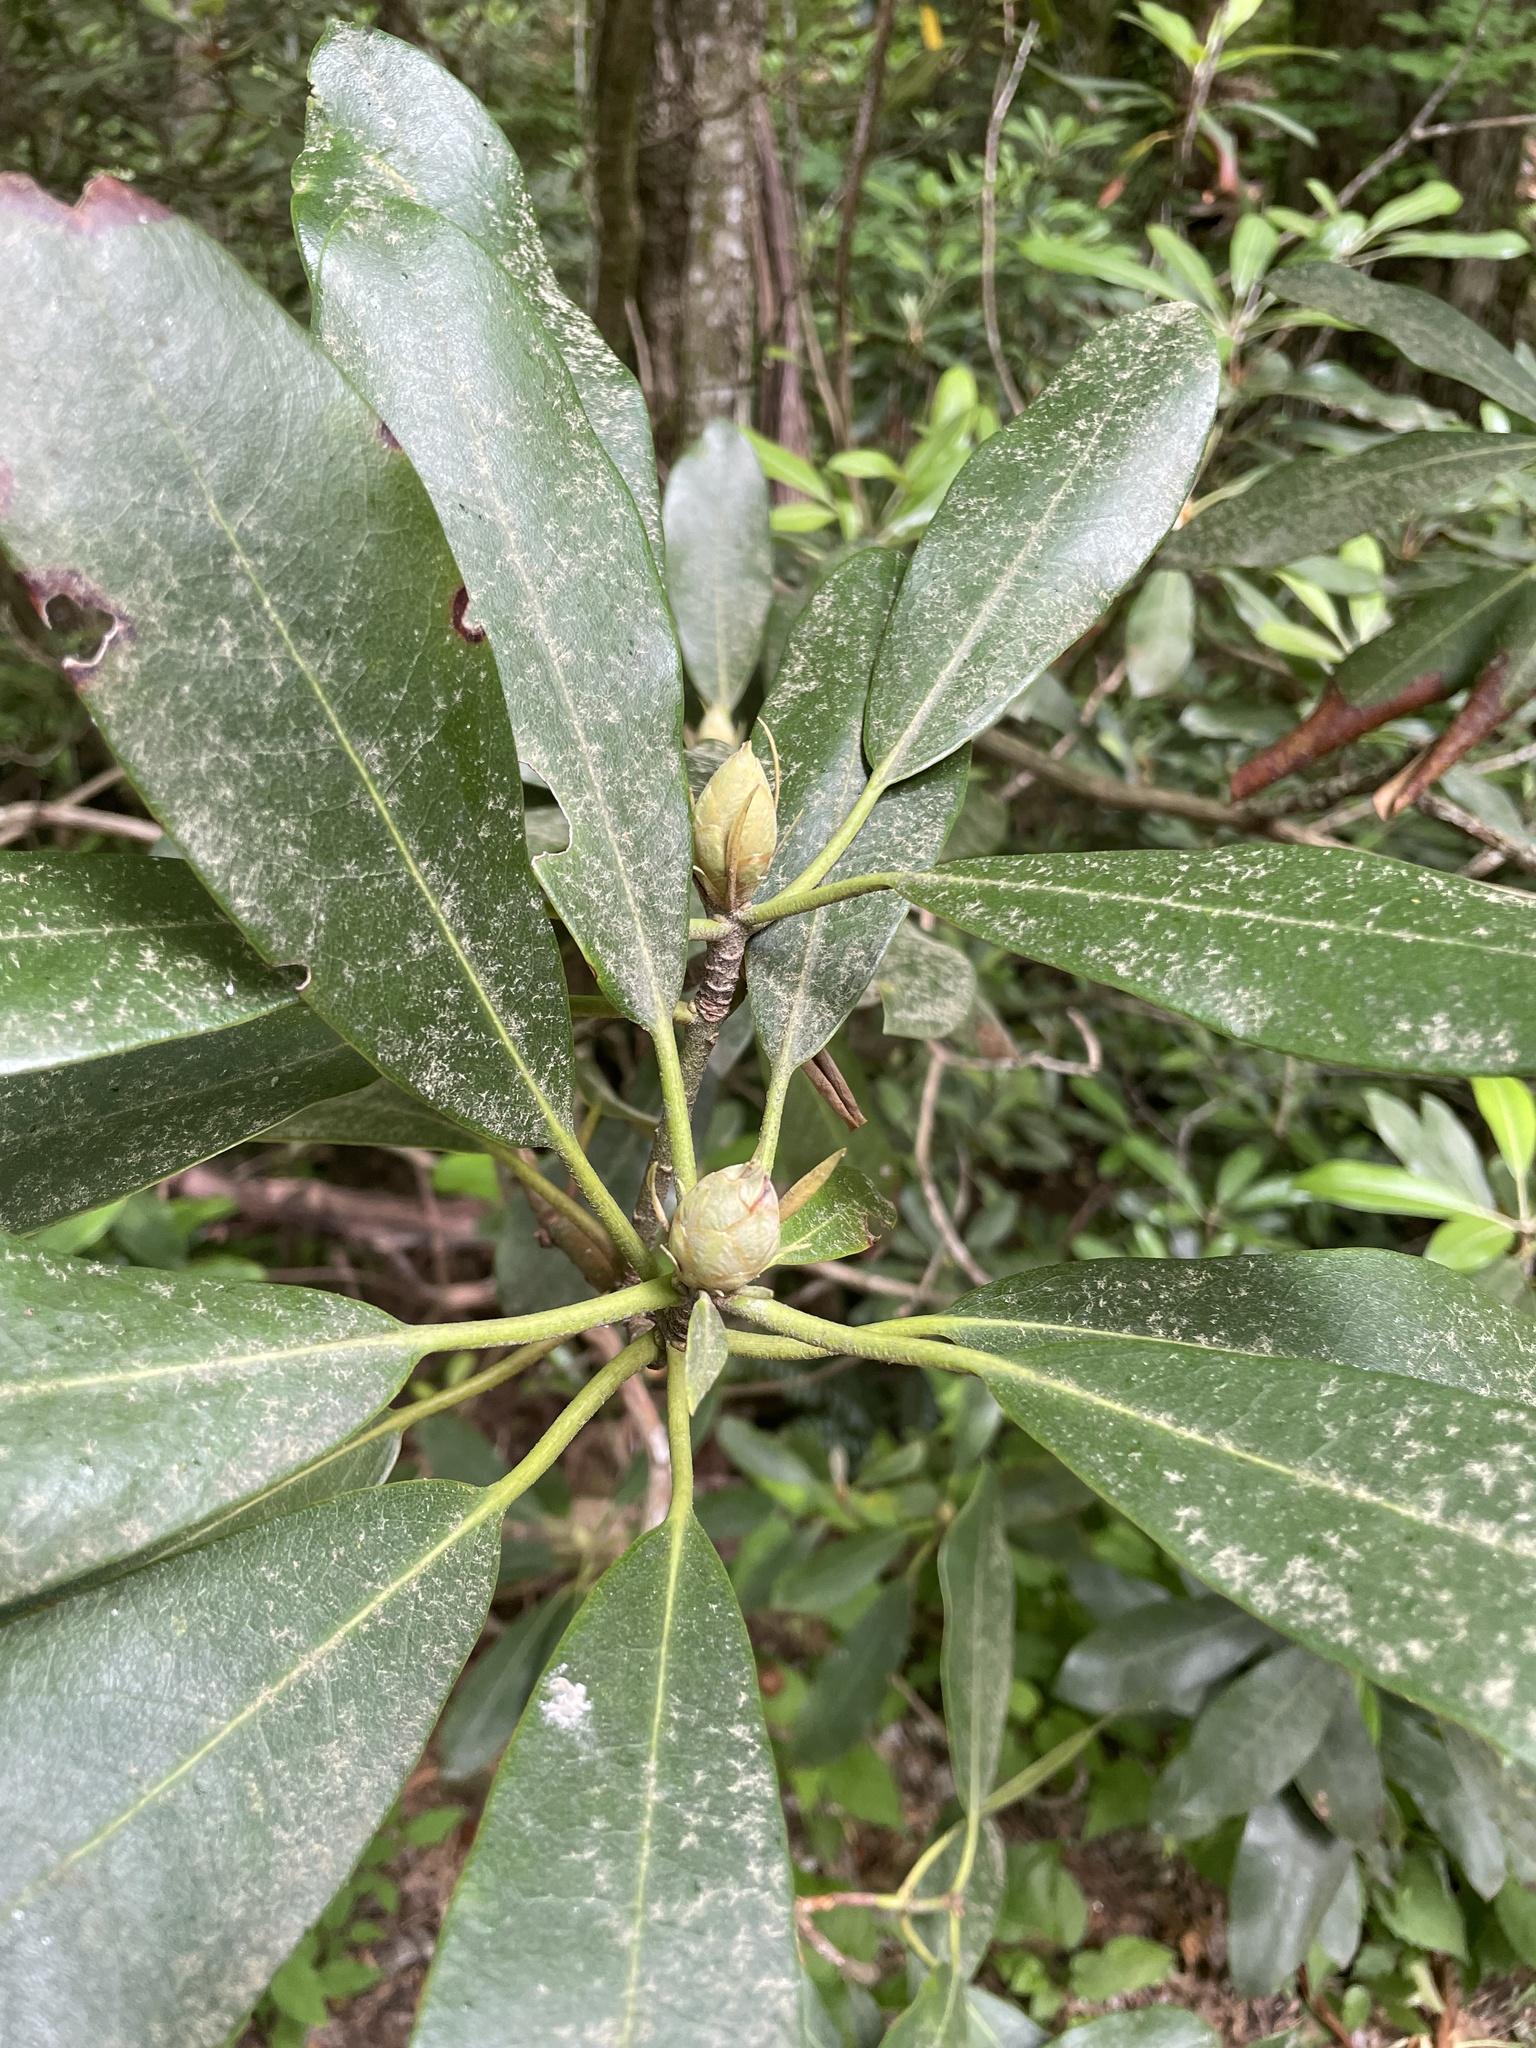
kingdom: Plantae
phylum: Tracheophyta
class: Magnoliopsida
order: Ericales
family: Ericaceae
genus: Rhododendron
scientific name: Rhododendron maximum
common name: Great rhododendron
